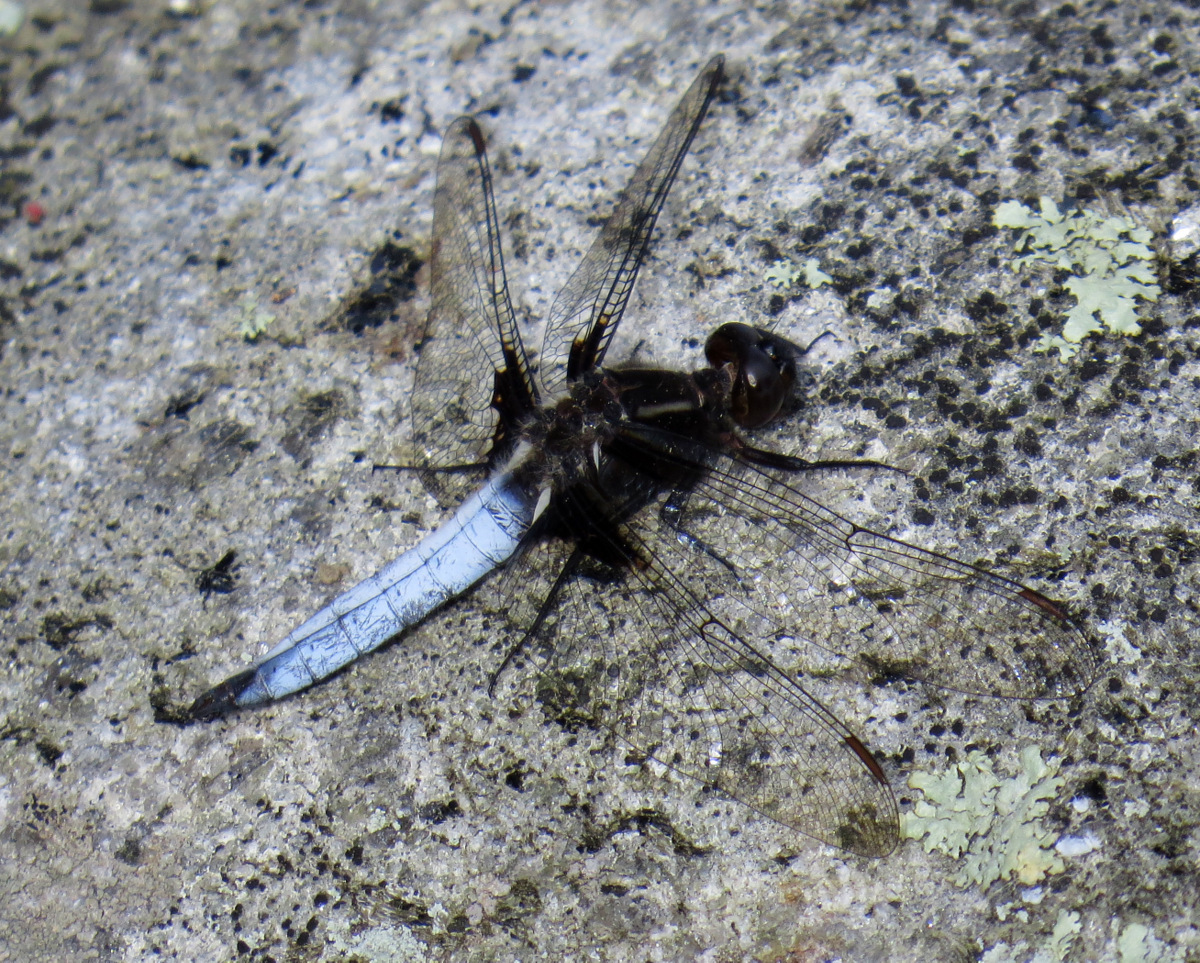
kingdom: Animalia
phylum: Arthropoda
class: Insecta
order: Odonata
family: Libellulidae
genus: Ladona
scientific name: Ladona exusta
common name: Libellule embrasée
